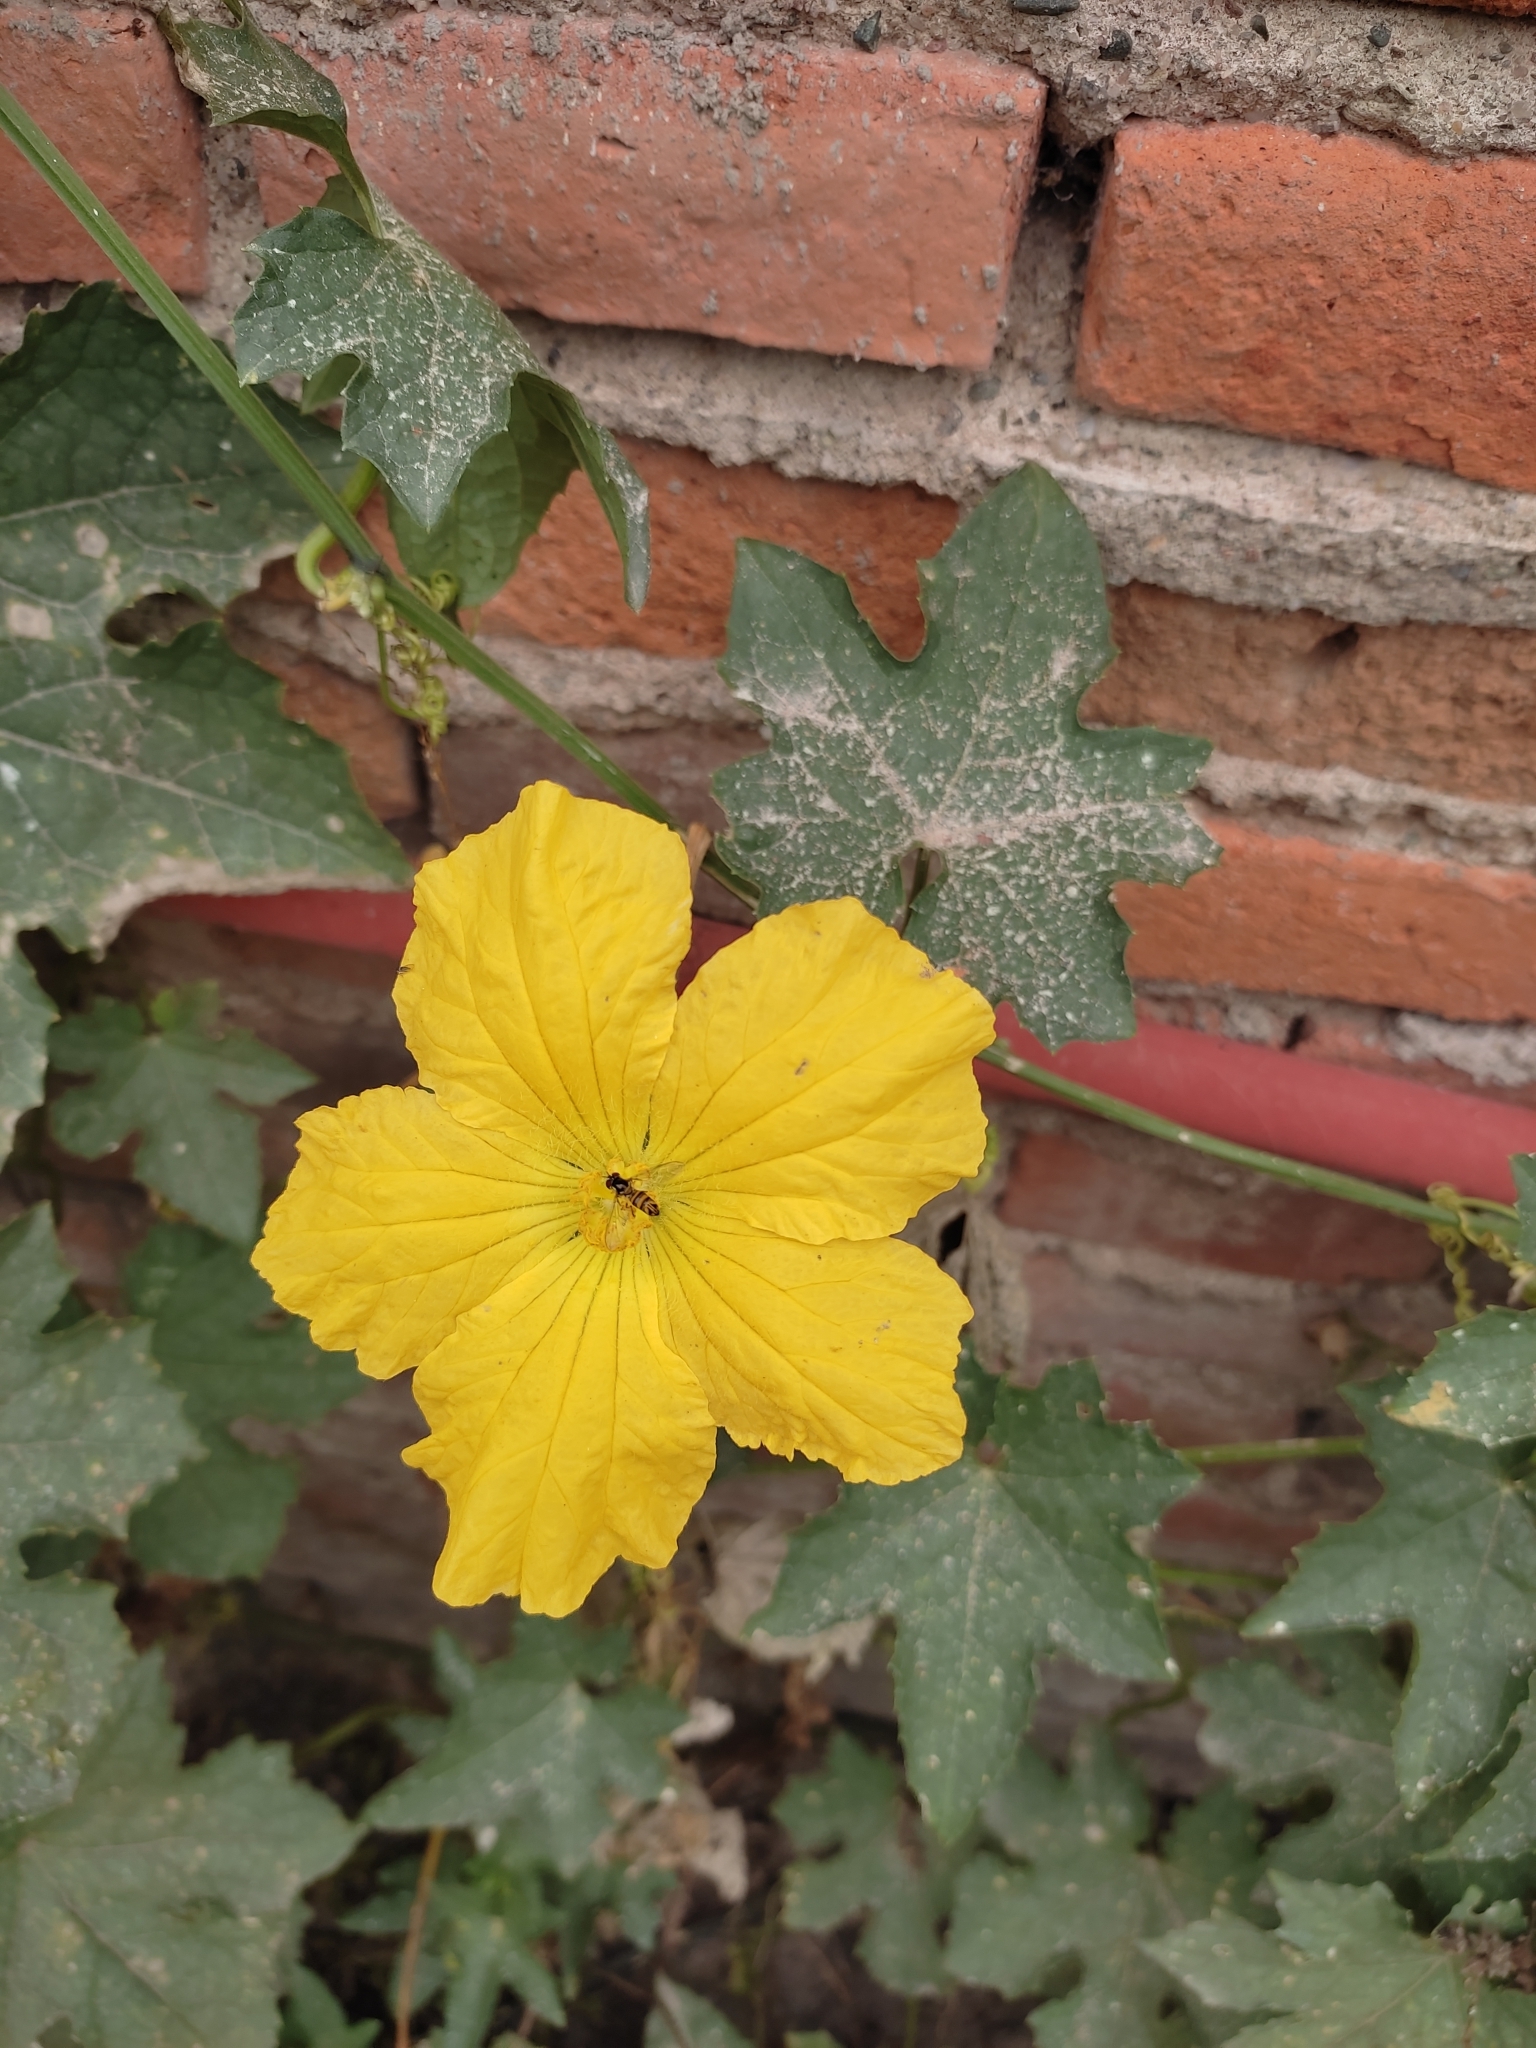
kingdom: Plantae
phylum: Tracheophyta
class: Magnoliopsida
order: Cucurbitales
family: Cucurbitaceae
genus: Luffa
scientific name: Luffa aegyptiaca
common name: Sponge gourd
